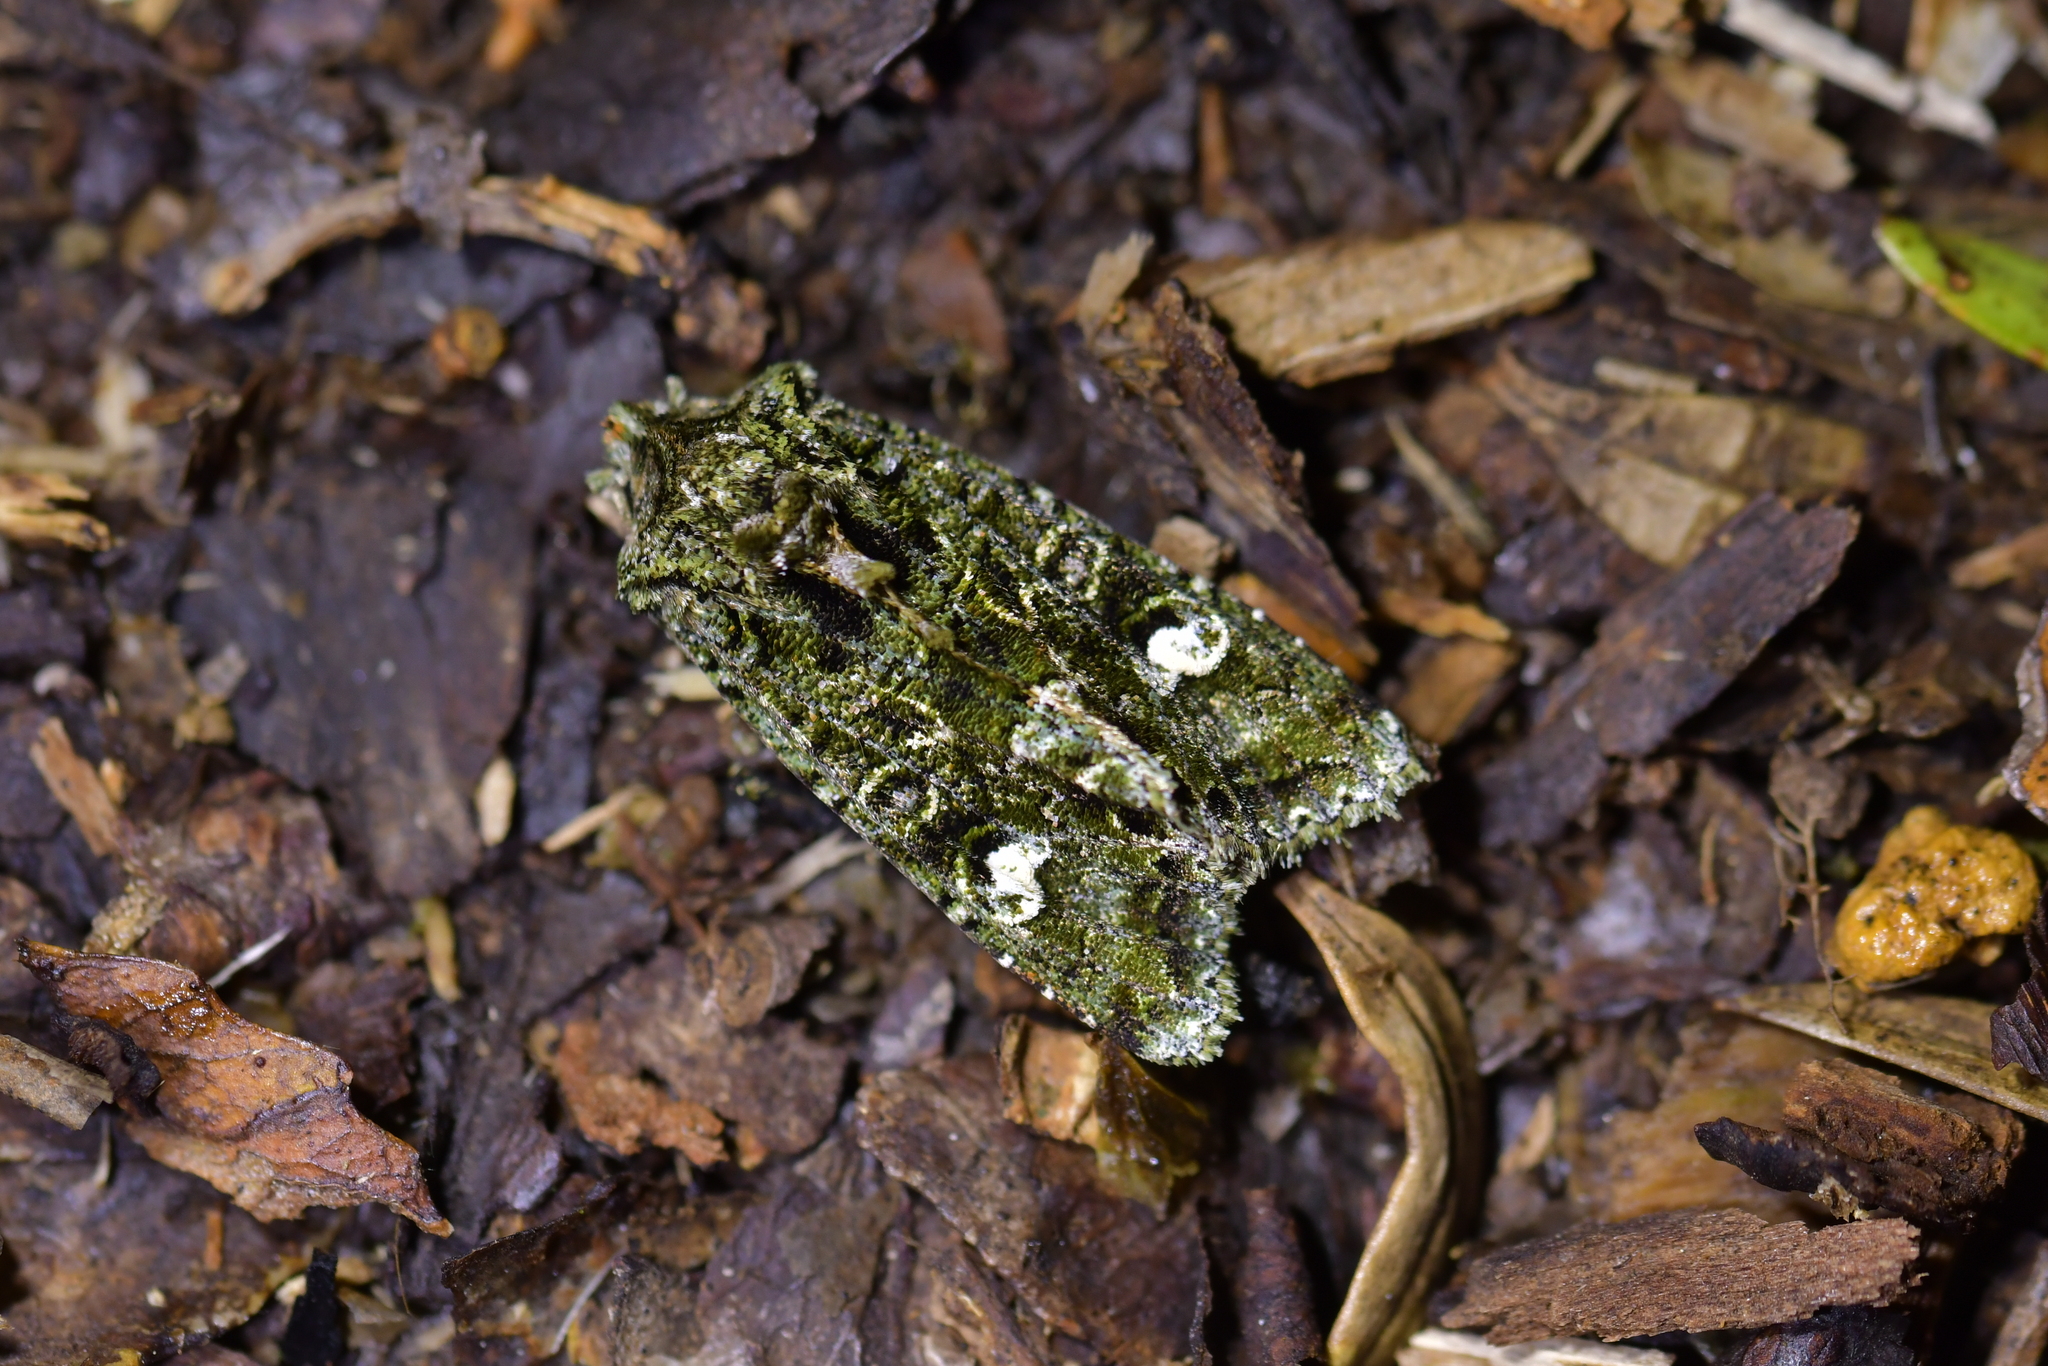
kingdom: Animalia
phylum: Arthropoda
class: Insecta
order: Lepidoptera
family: Noctuidae
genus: Ichneutica
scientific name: Ichneutica
